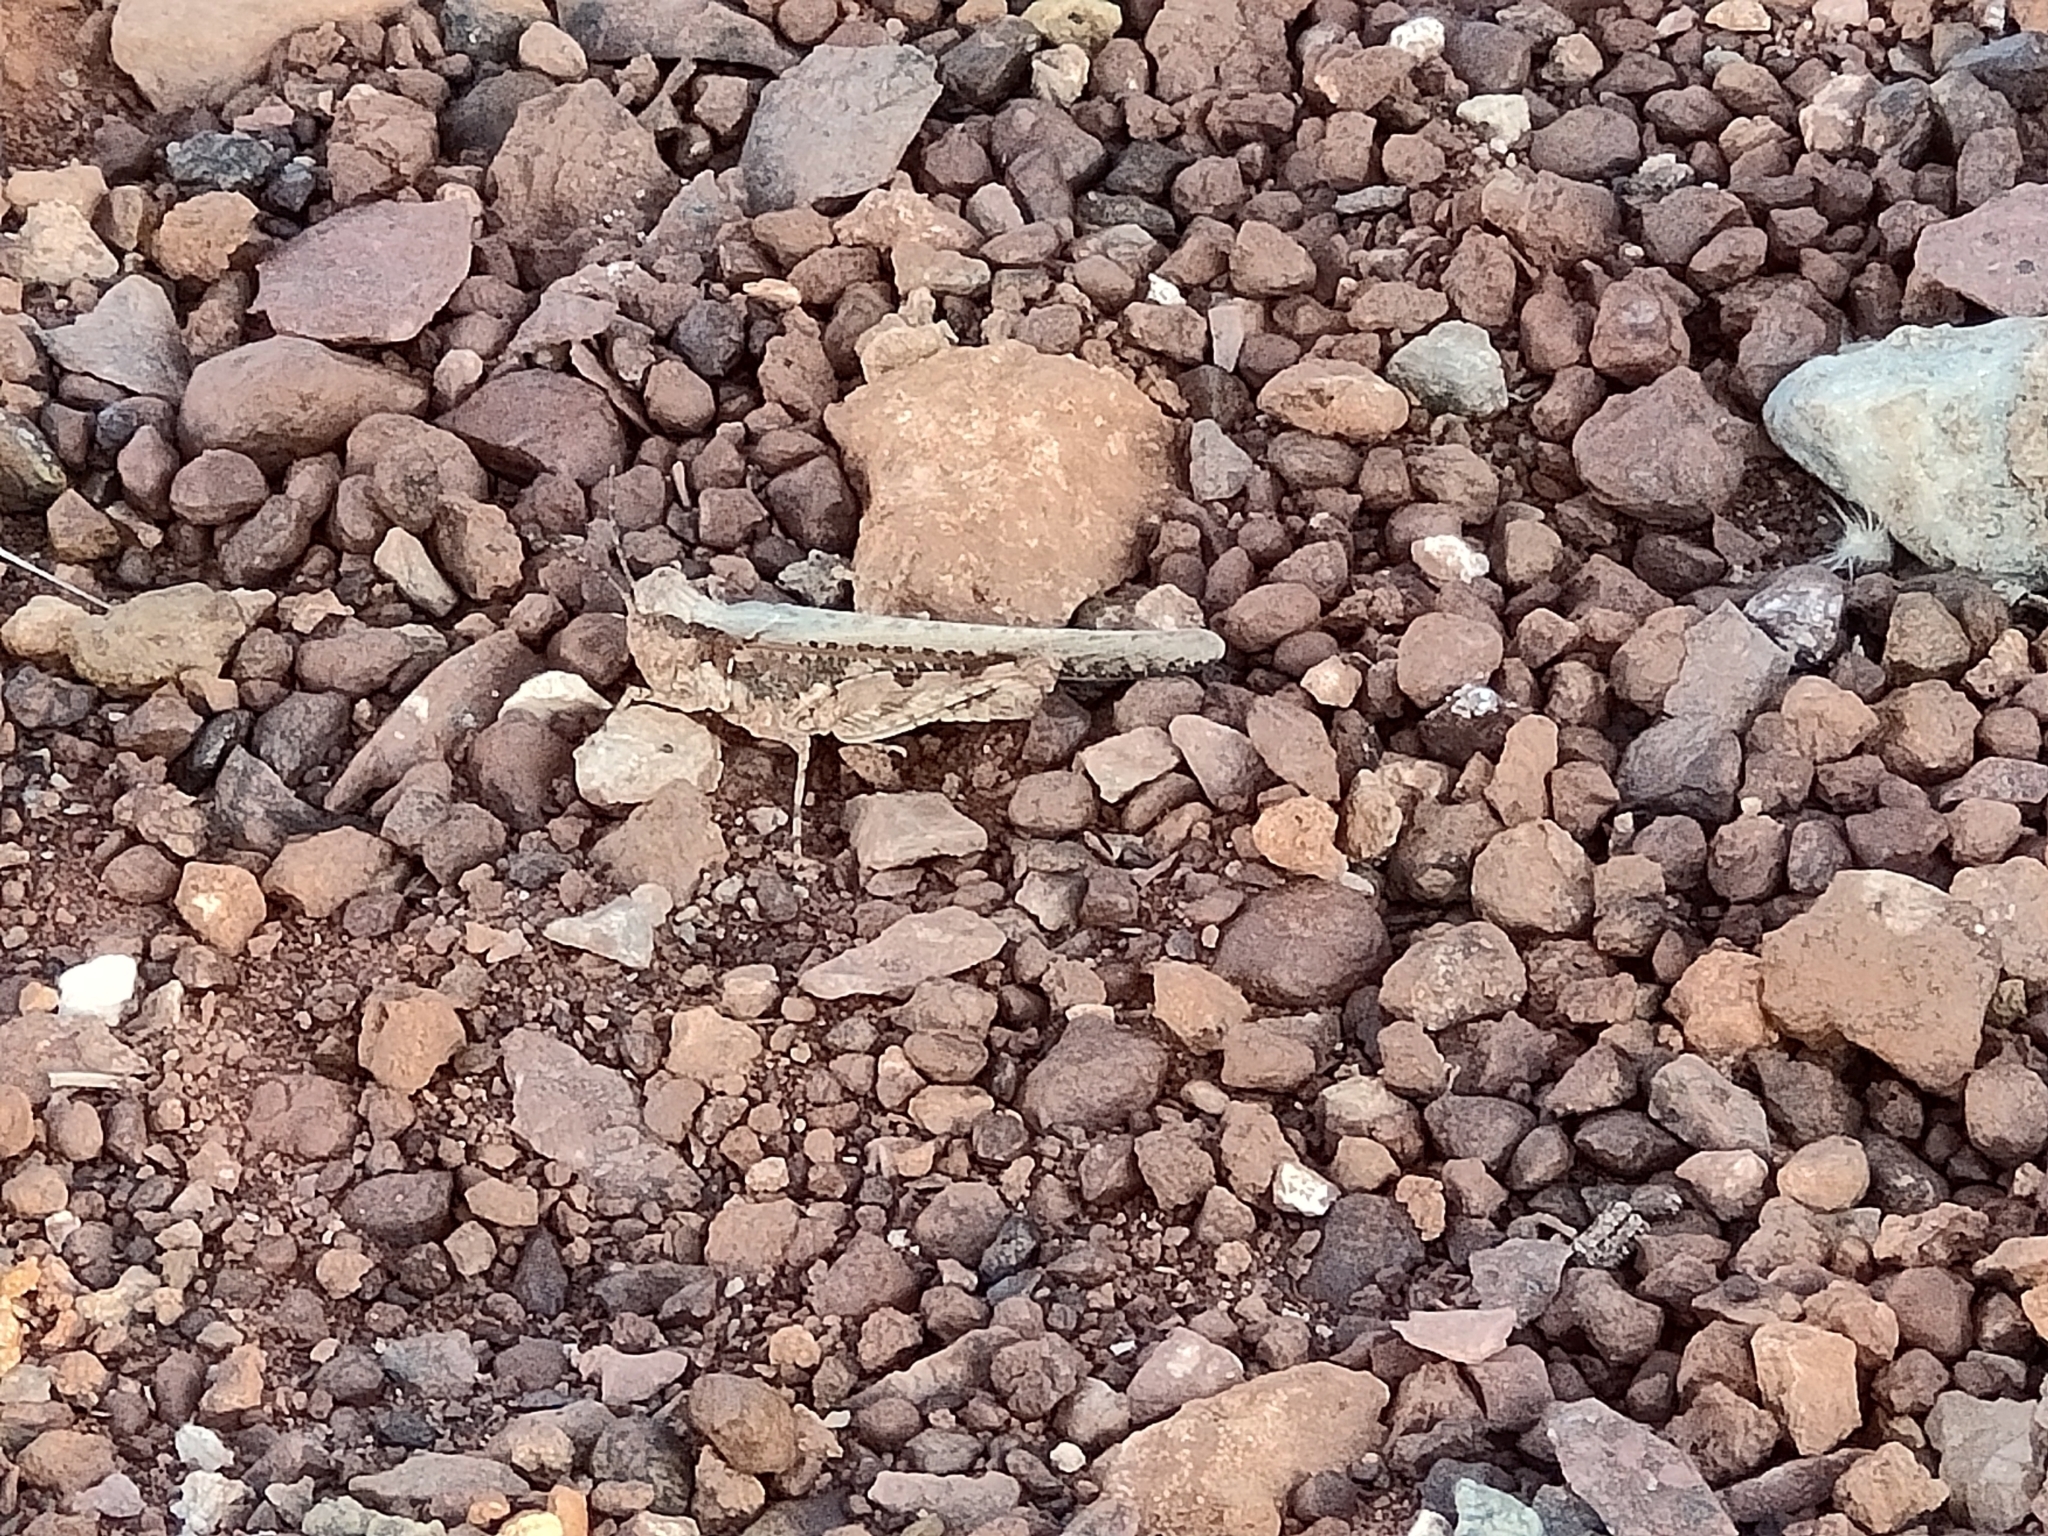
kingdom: Animalia
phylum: Arthropoda
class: Insecta
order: Orthoptera
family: Acrididae
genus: Pycnostictus
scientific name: Pycnostictus seriatus
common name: Common bandwing
